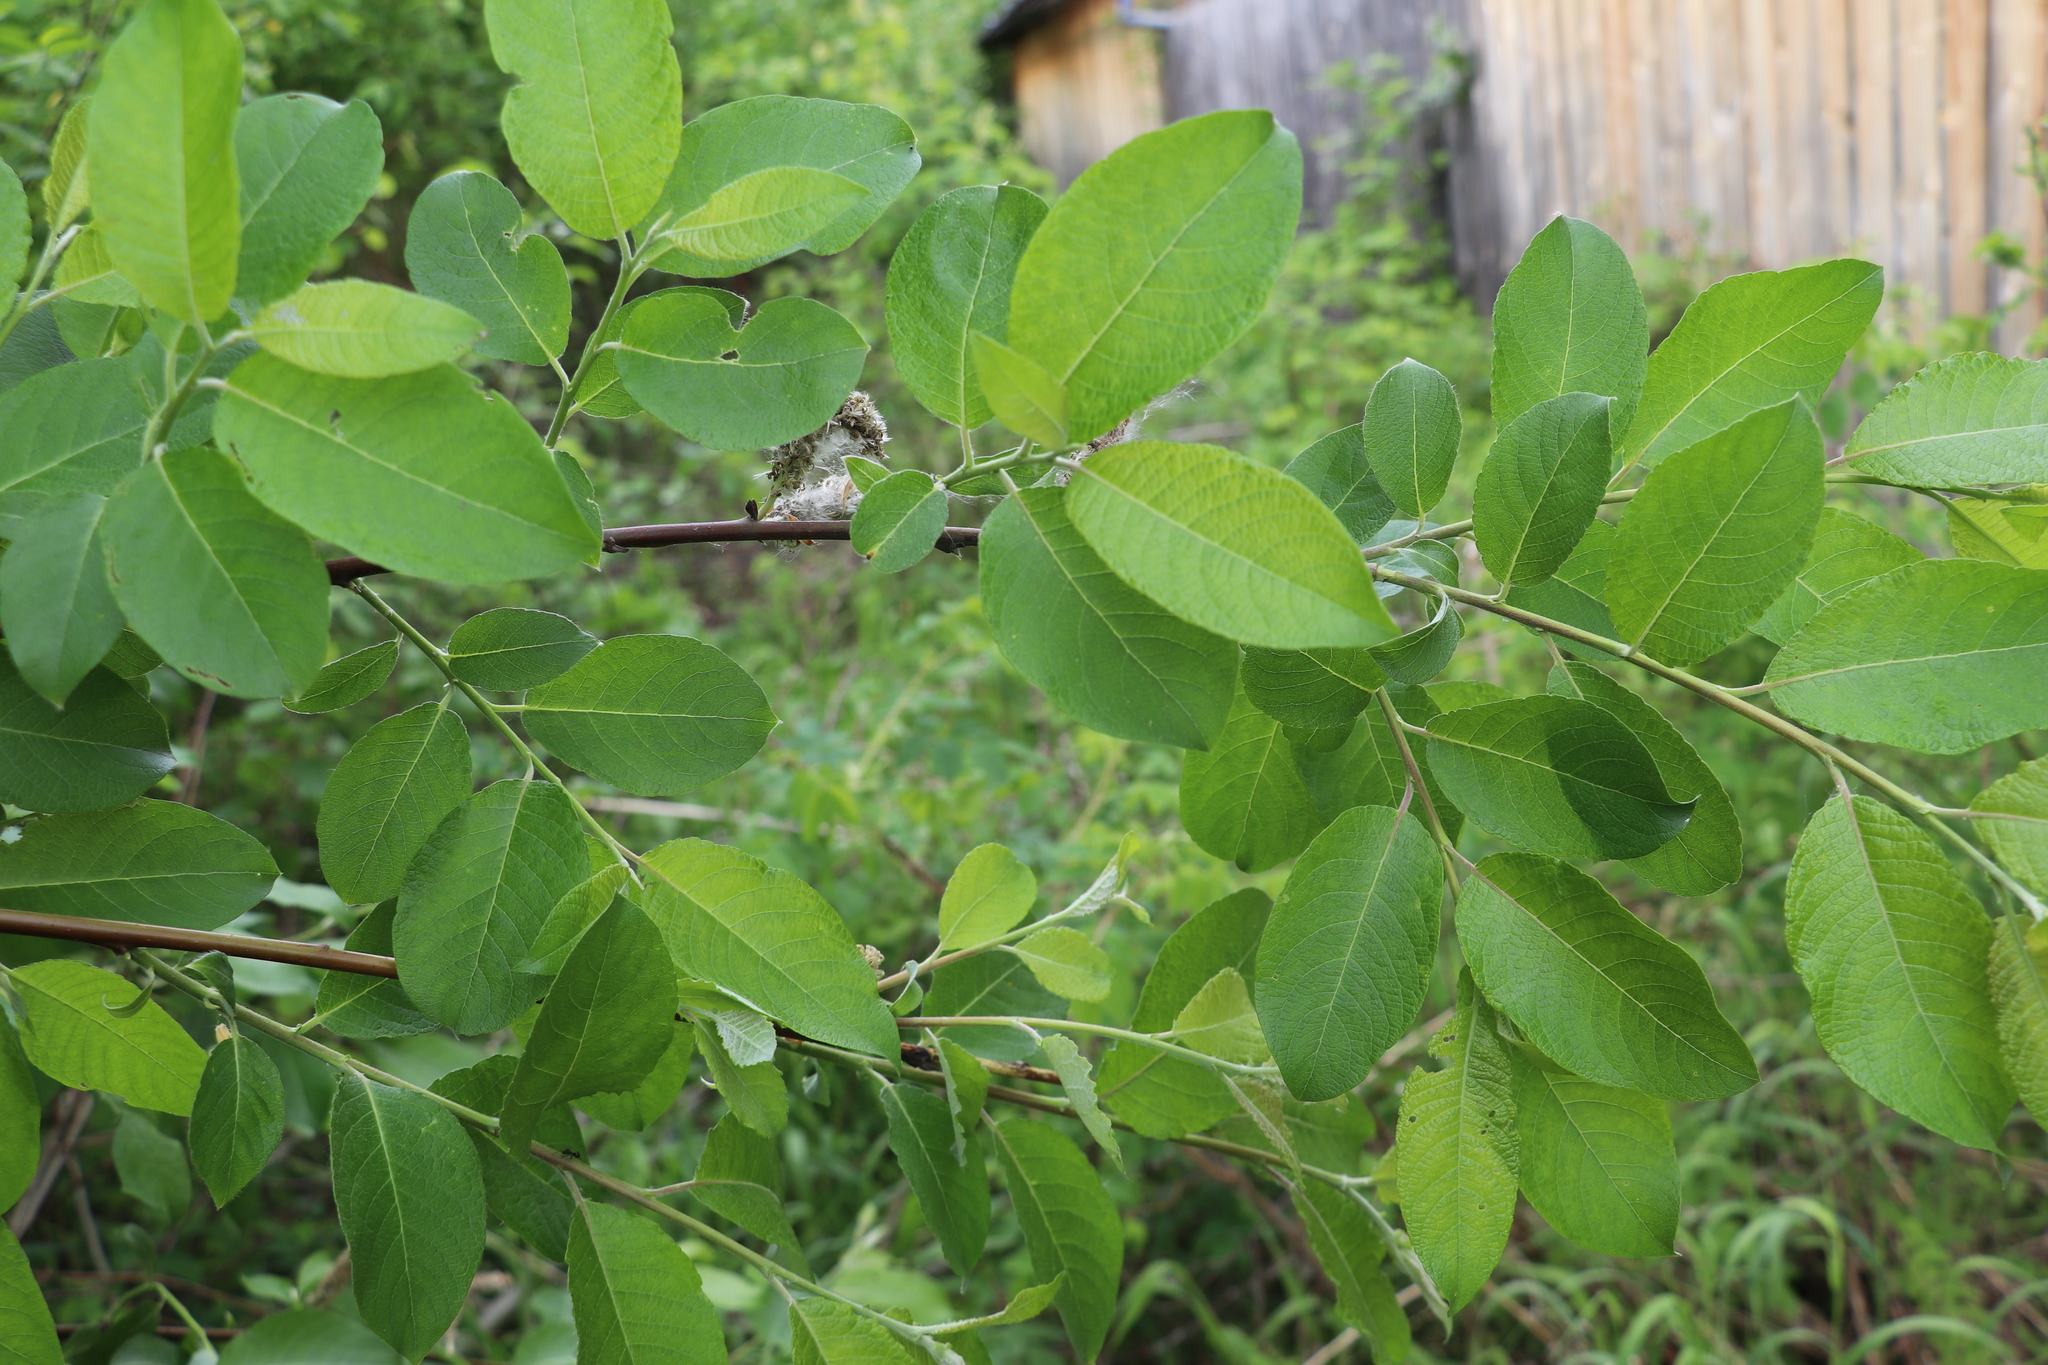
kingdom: Plantae
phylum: Tracheophyta
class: Magnoliopsida
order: Malpighiales
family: Salicaceae
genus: Salix
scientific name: Salix caprea
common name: Goat willow
